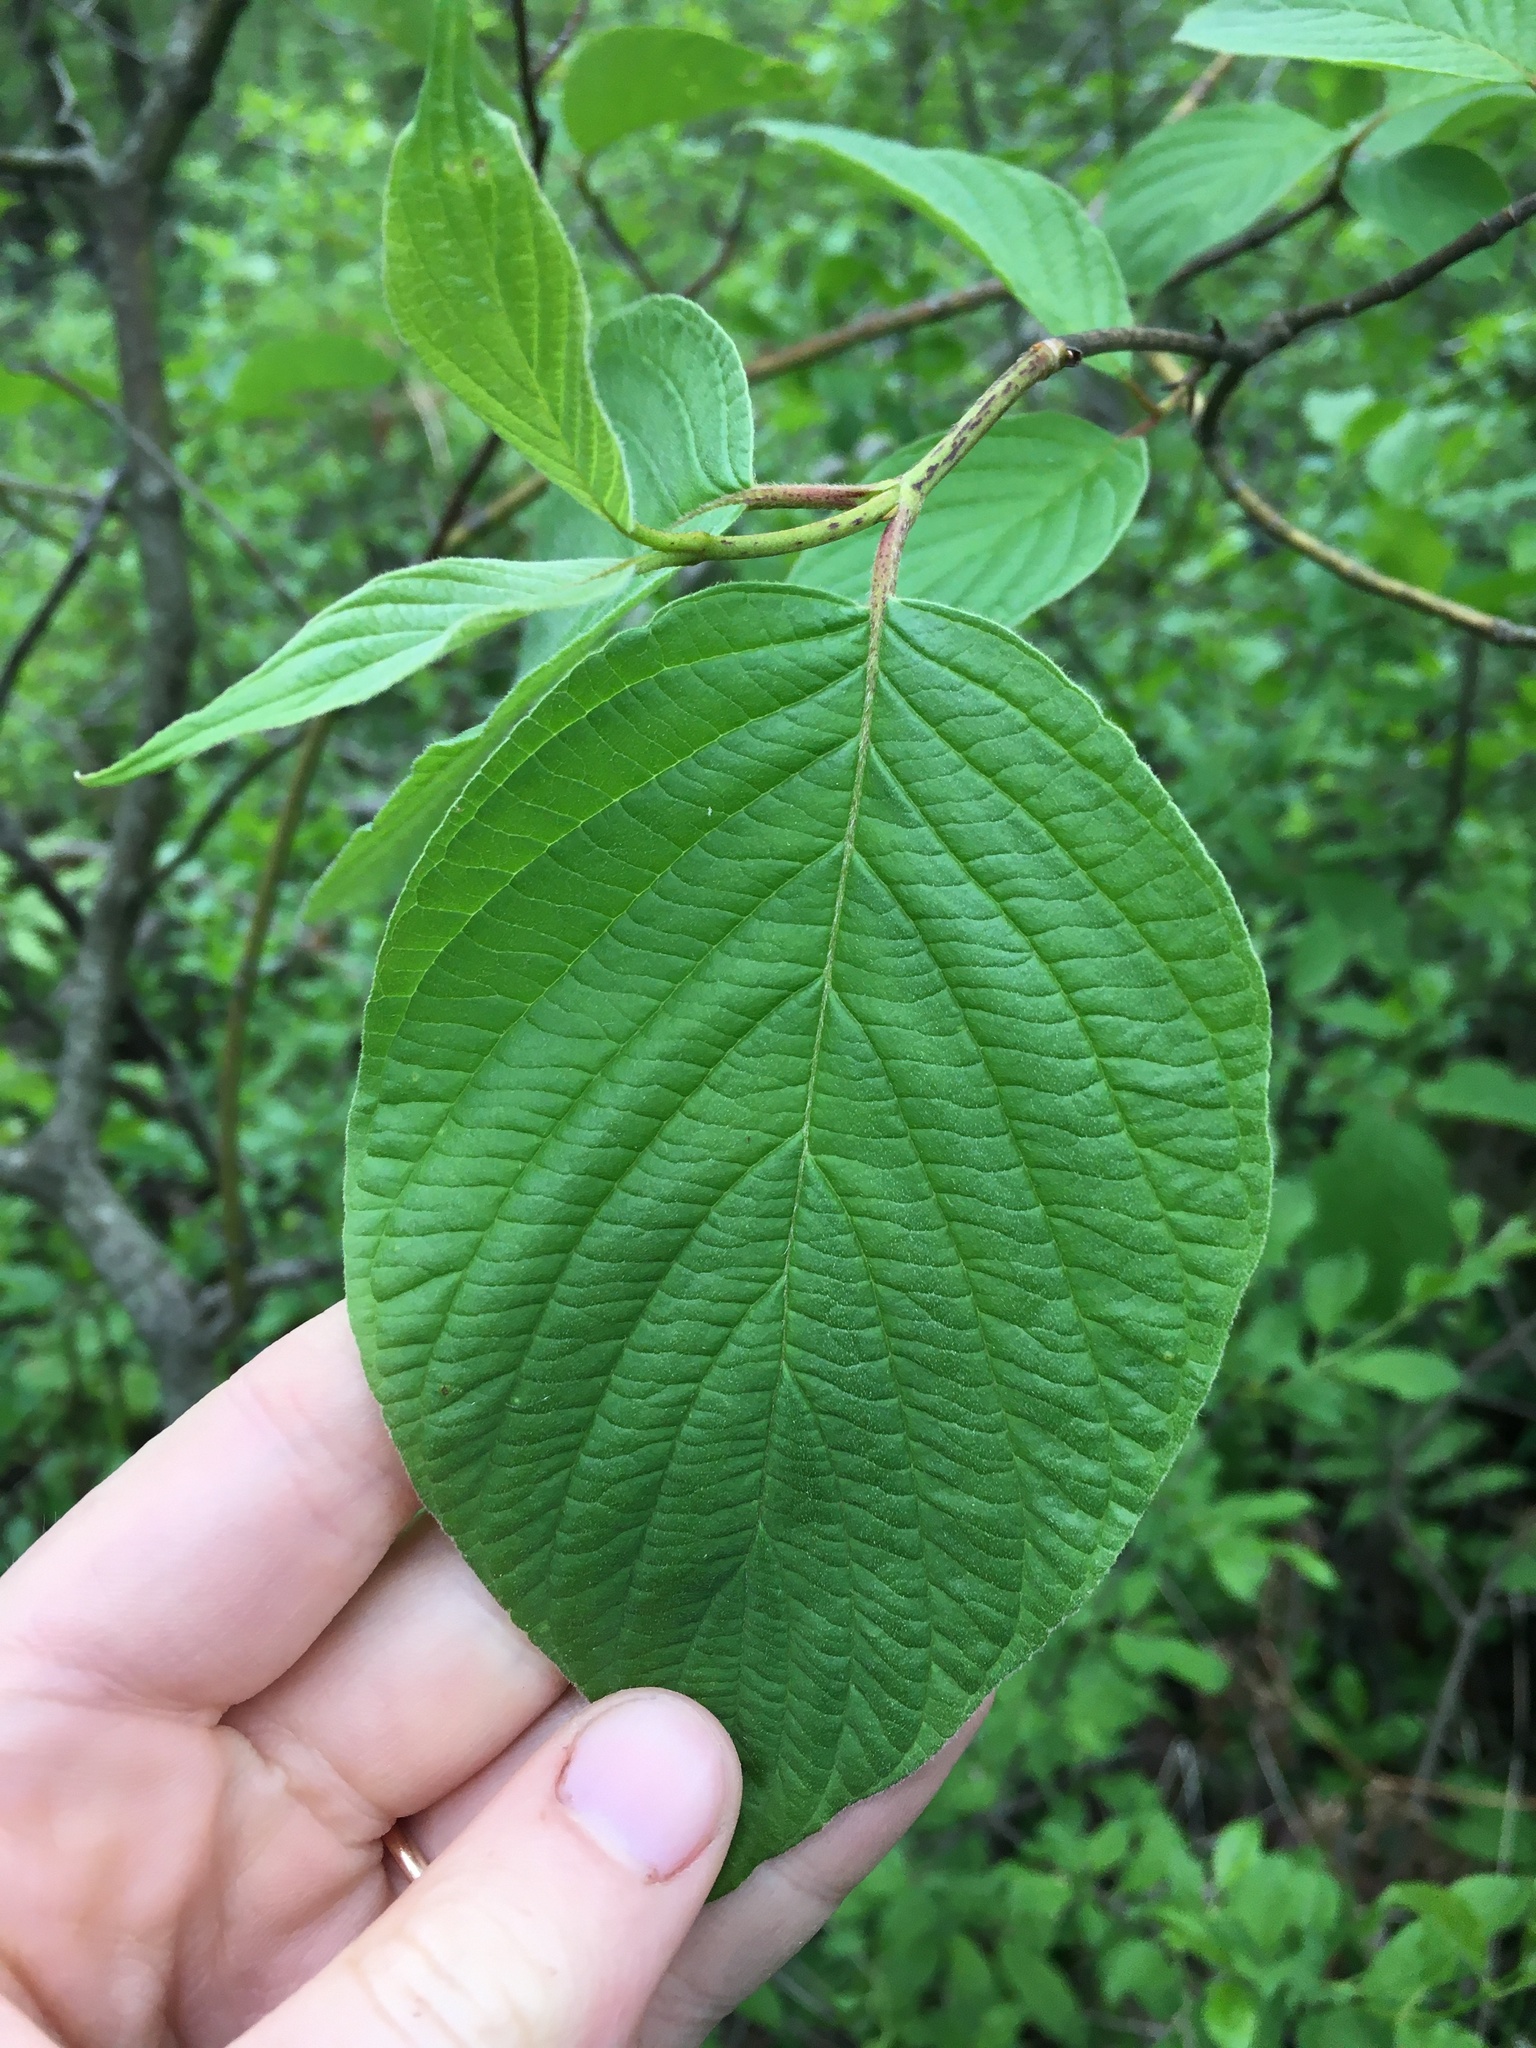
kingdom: Plantae
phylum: Tracheophyta
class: Magnoliopsida
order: Cornales
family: Cornaceae
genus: Cornus
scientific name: Cornus rugosa
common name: Round-leaf dogwood
